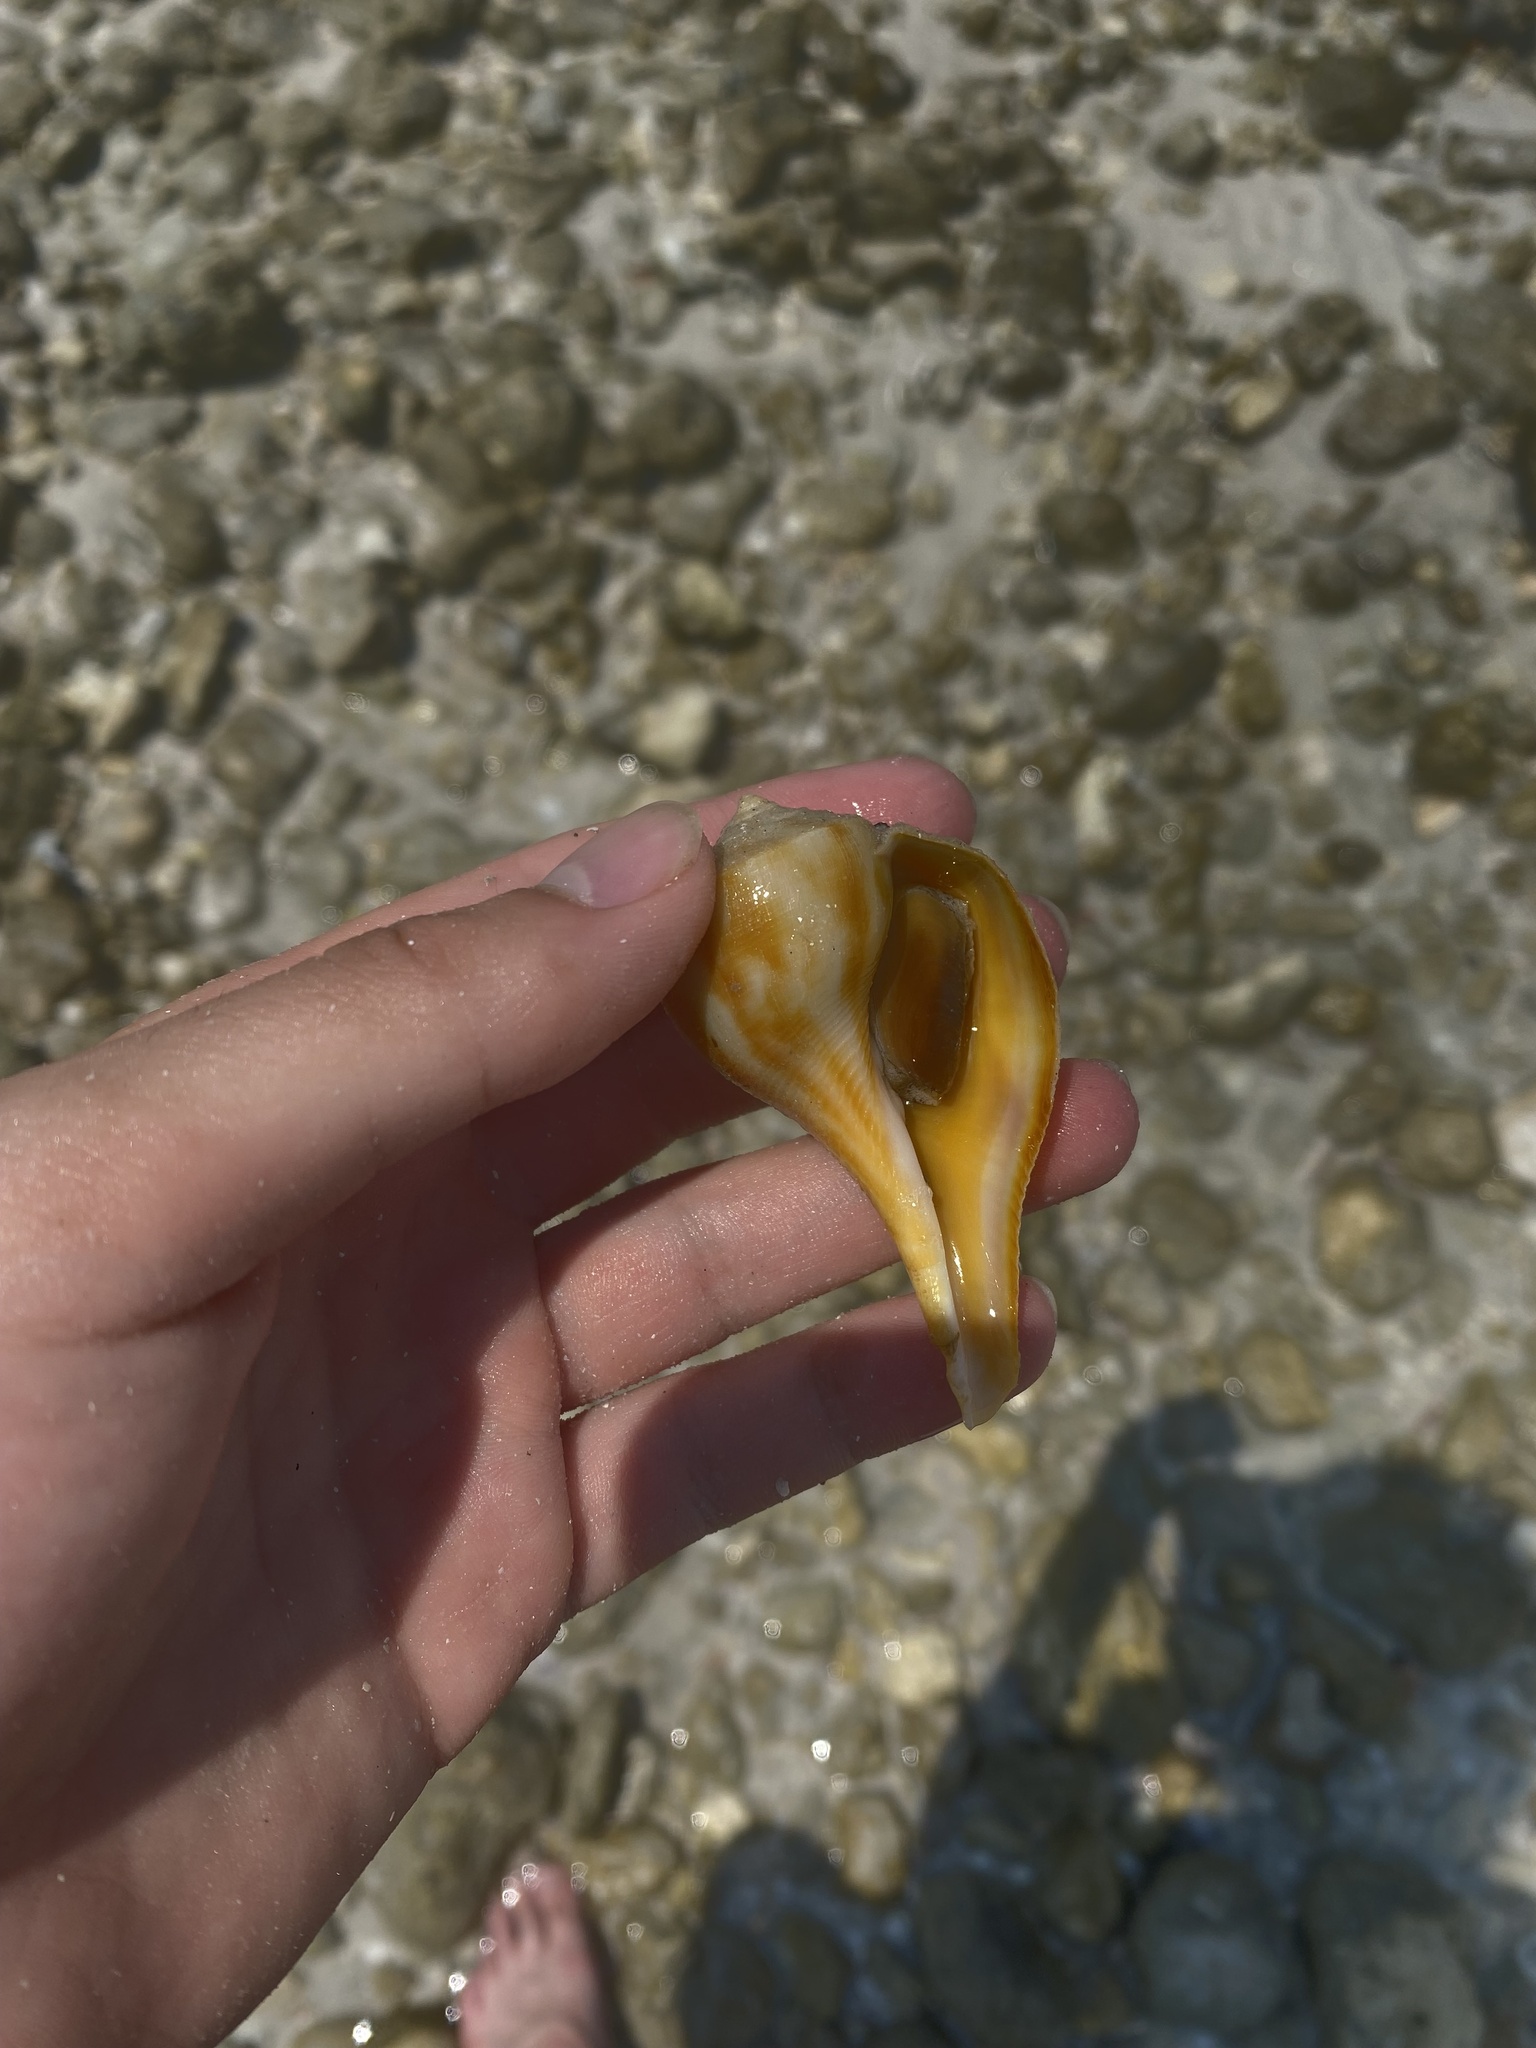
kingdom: Animalia
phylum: Mollusca
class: Gastropoda
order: Neogastropoda
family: Busyconidae
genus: Fulguropsis
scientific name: Fulguropsis pyruloides
